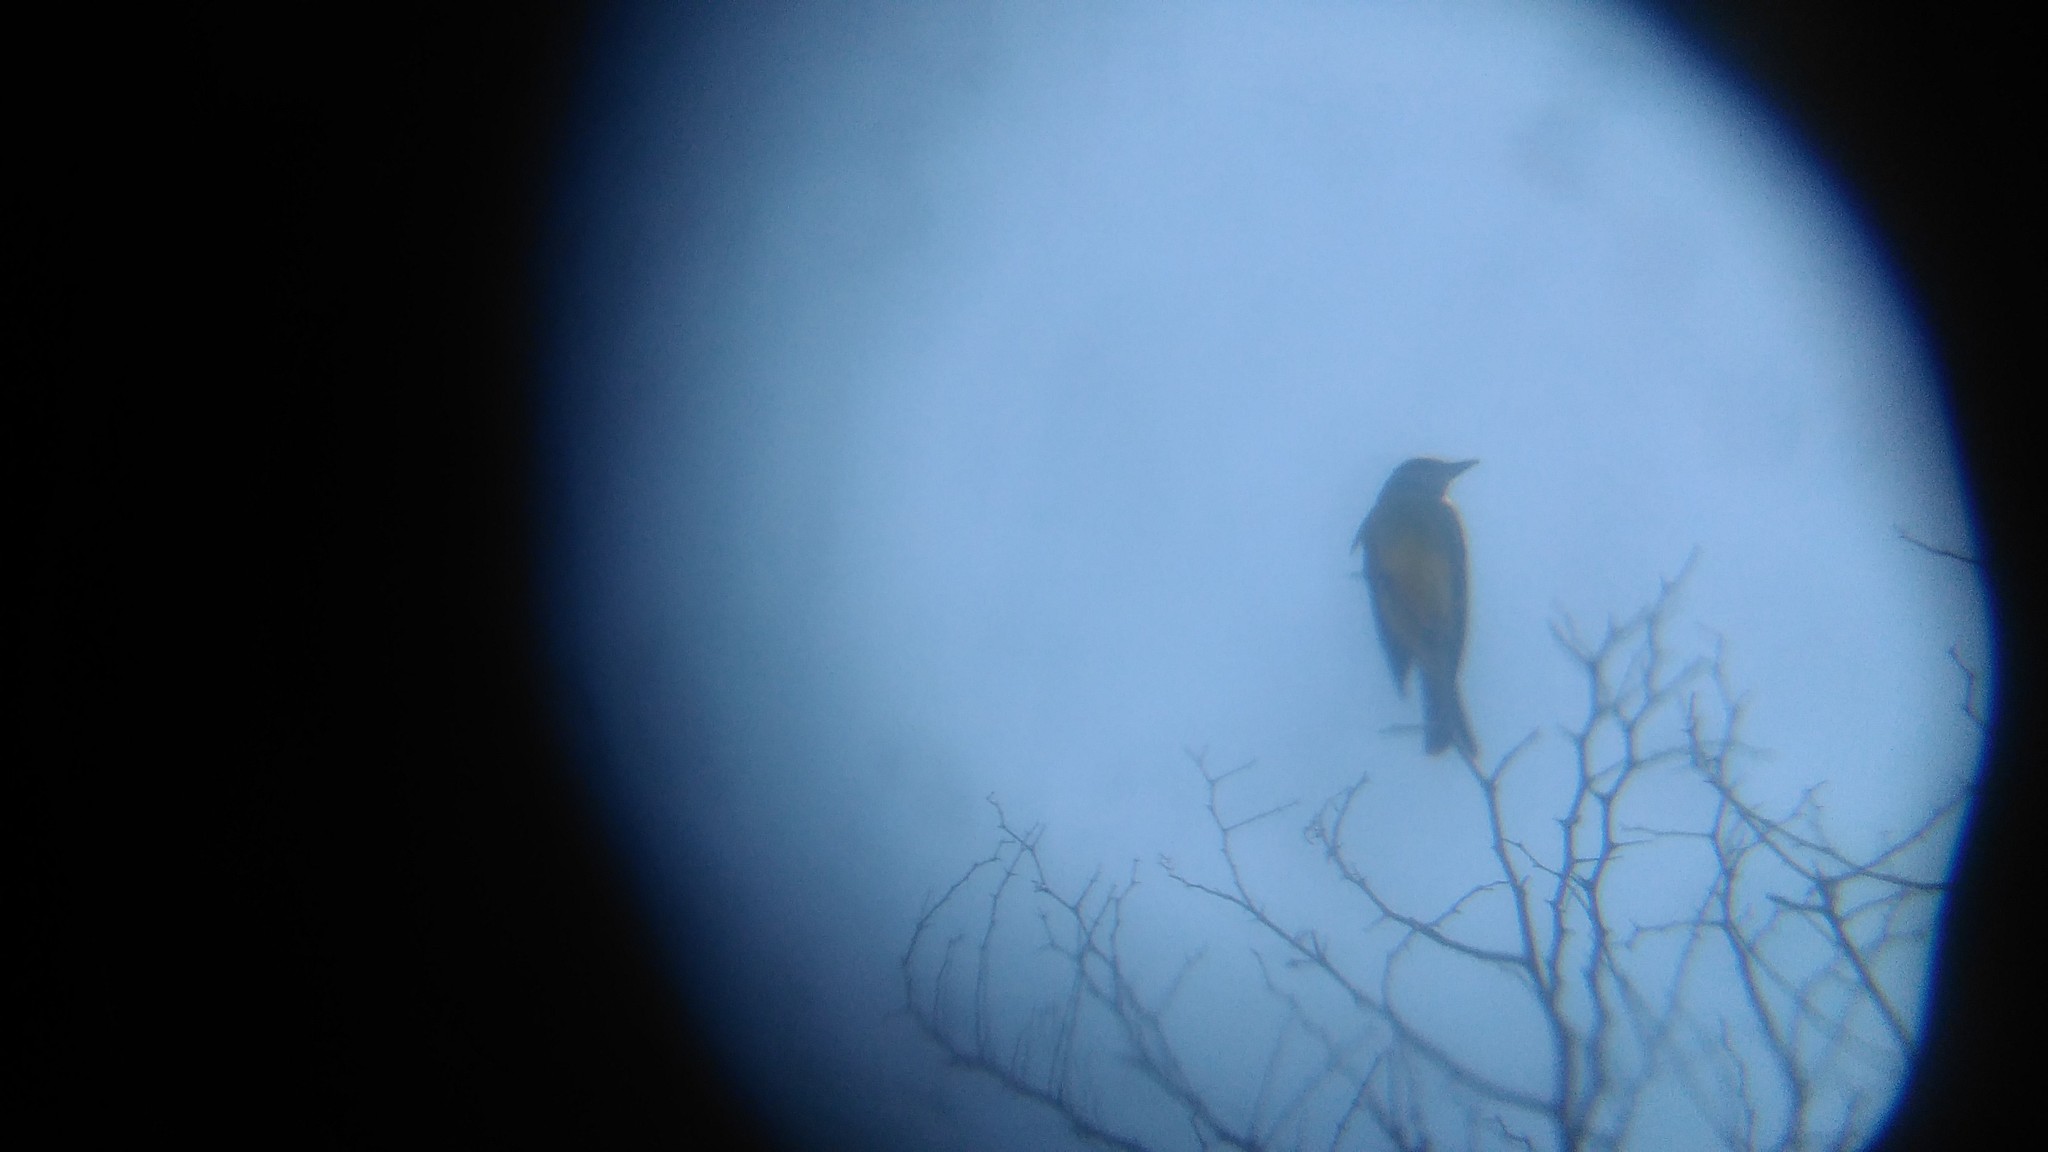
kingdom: Animalia
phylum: Chordata
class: Aves
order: Passeriformes
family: Icteridae
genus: Pseudoleistes
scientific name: Pseudoleistes virescens
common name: Brown-and-yellow marshbird
